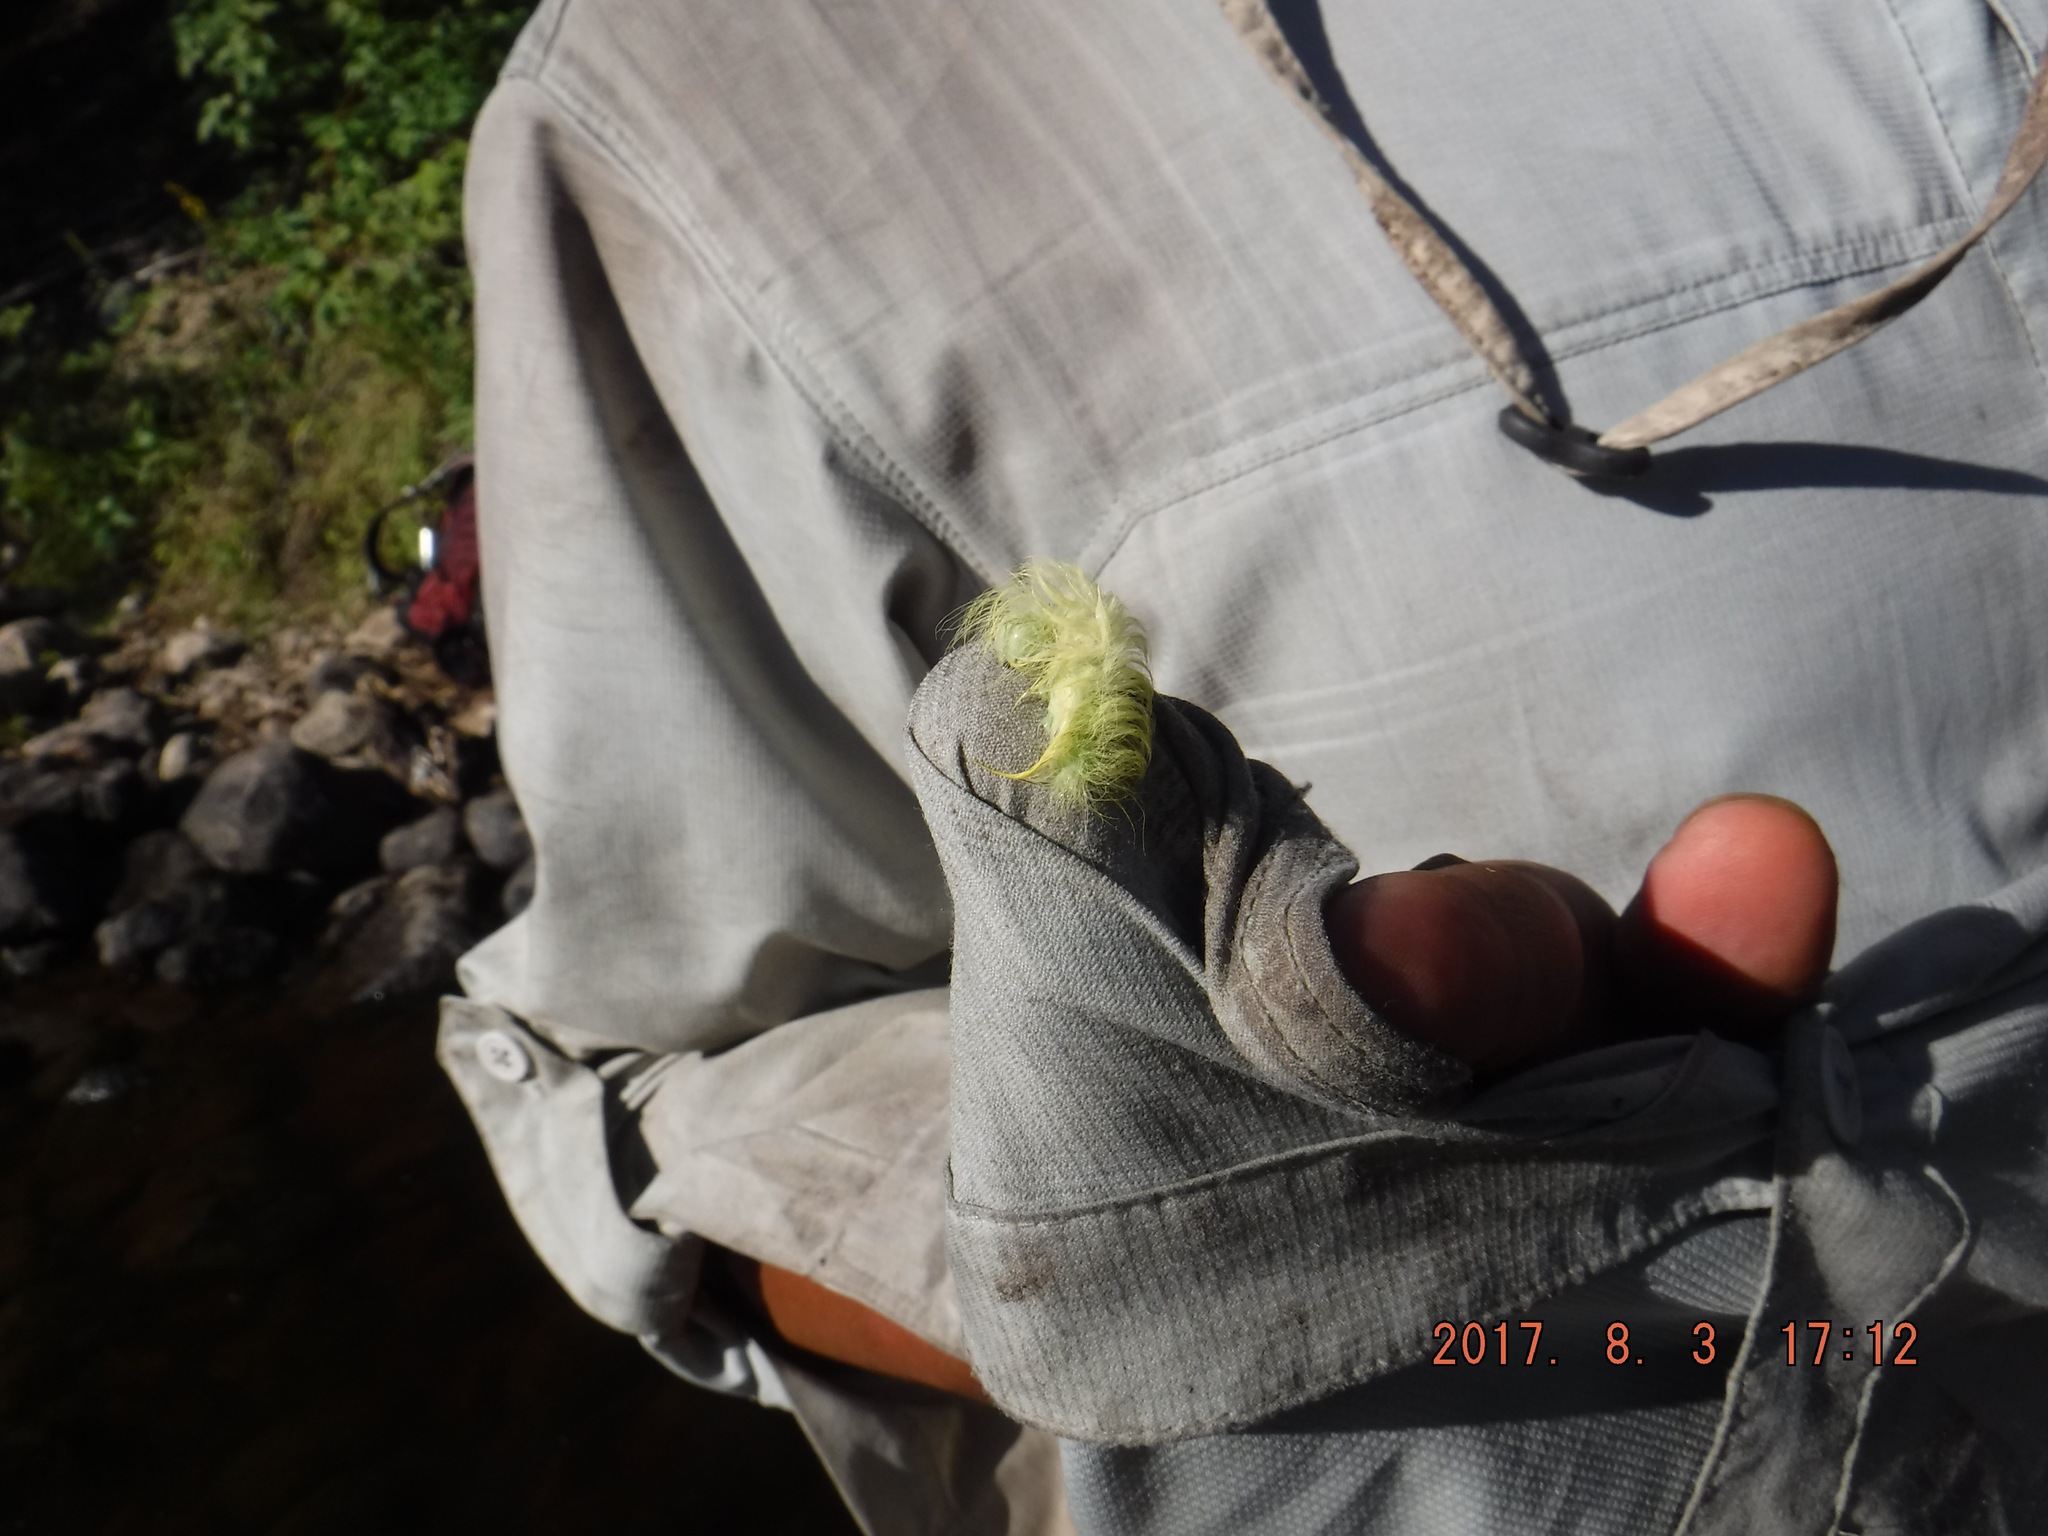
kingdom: Animalia
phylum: Arthropoda
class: Insecta
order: Lepidoptera
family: Noctuidae
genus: Acronicta
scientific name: Acronicta vulpina
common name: Miller dagger
